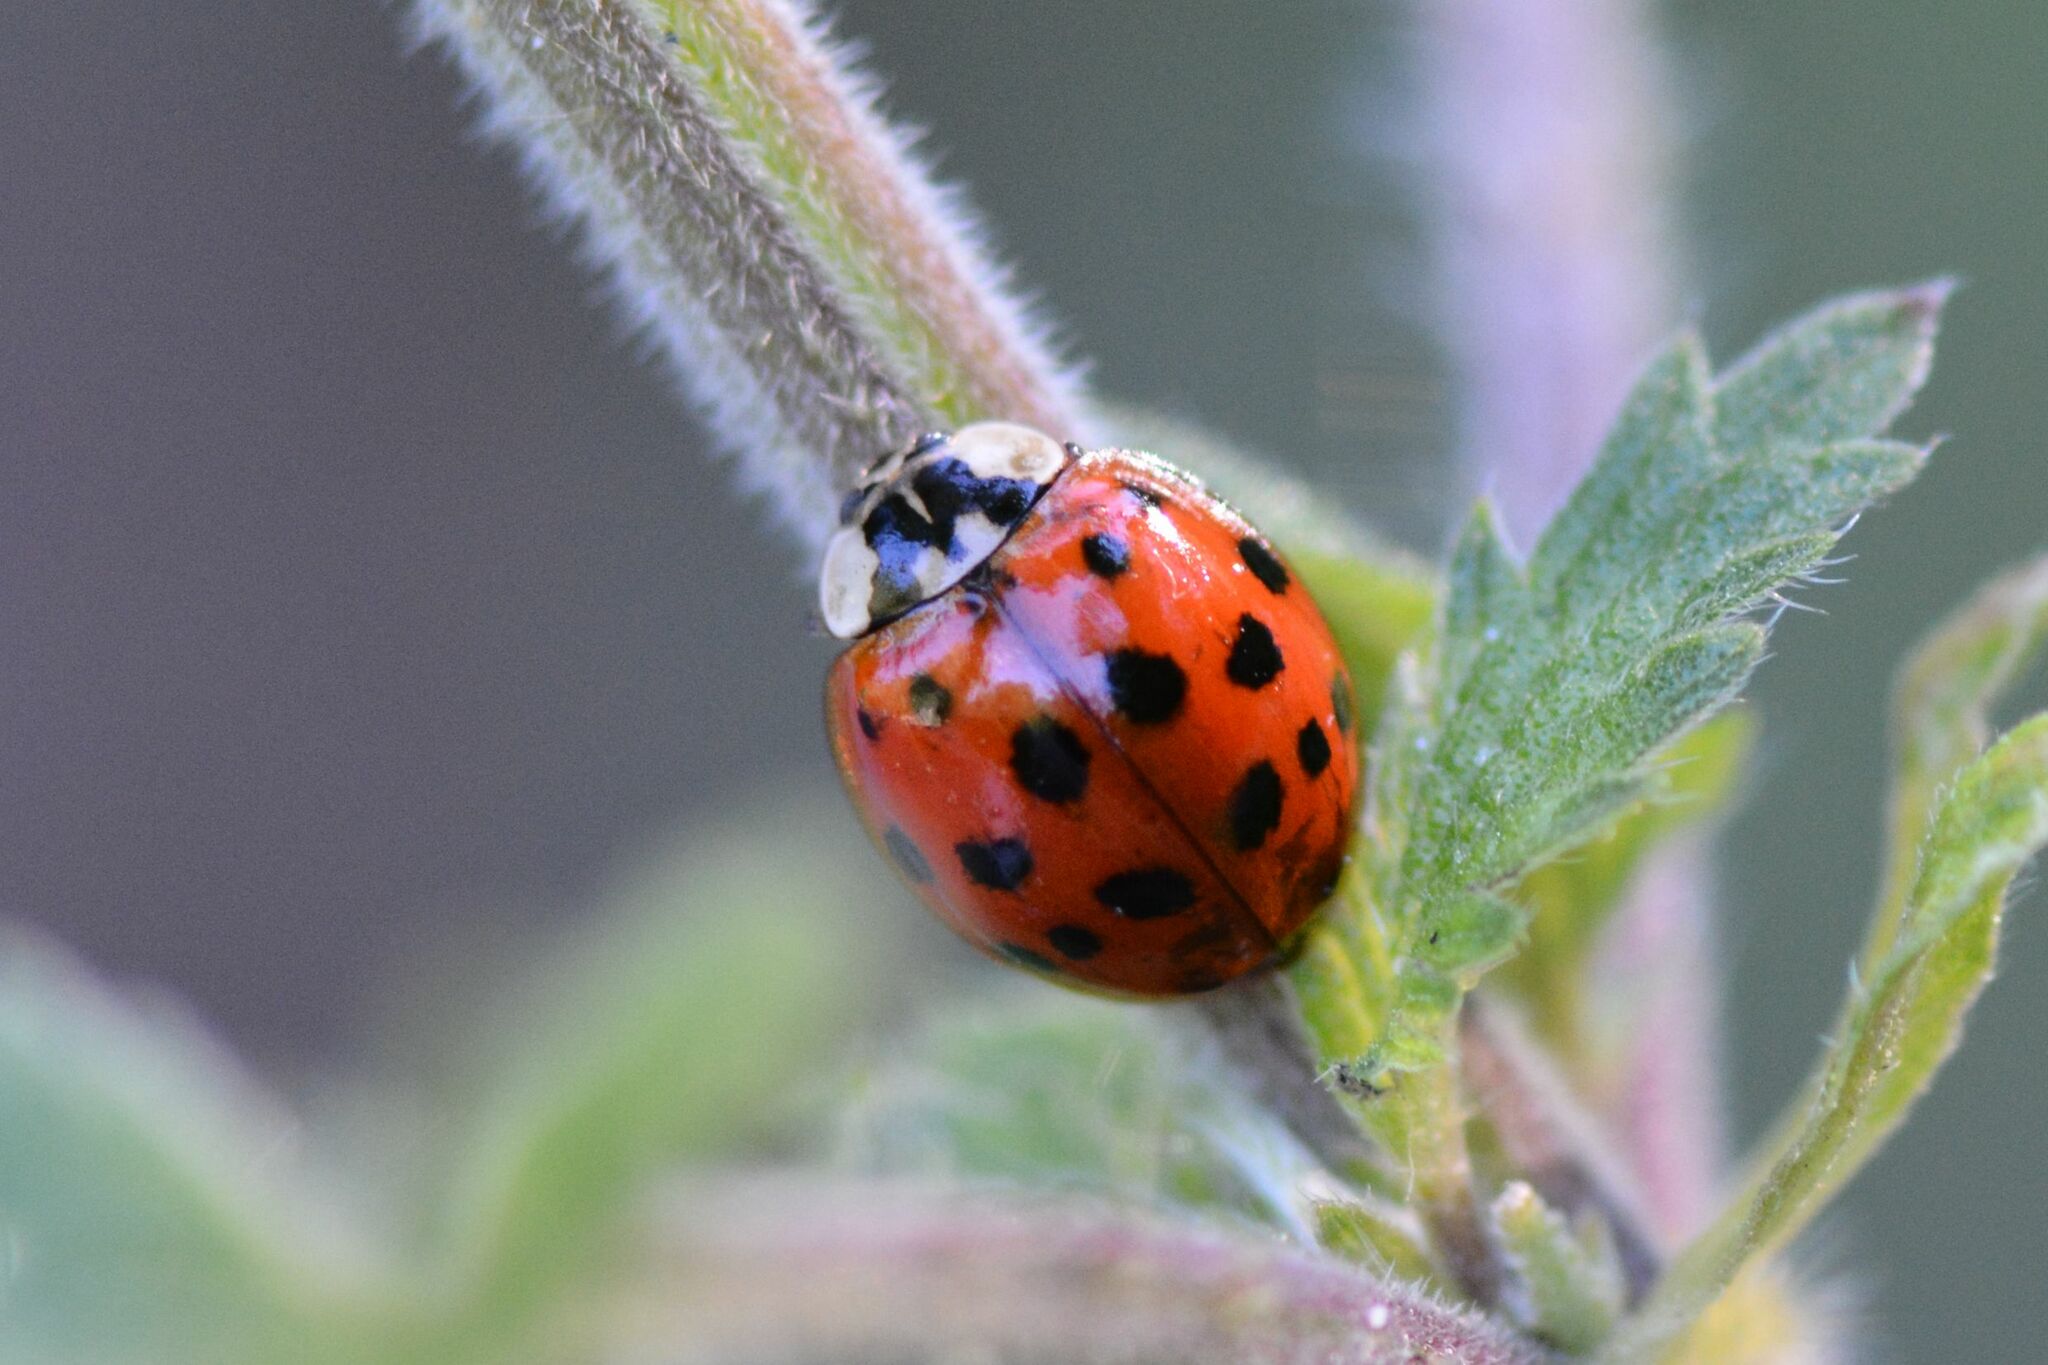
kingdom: Animalia
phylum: Arthropoda
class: Insecta
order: Coleoptera
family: Coccinellidae
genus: Harmonia
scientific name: Harmonia axyridis
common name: Harlequin ladybird
